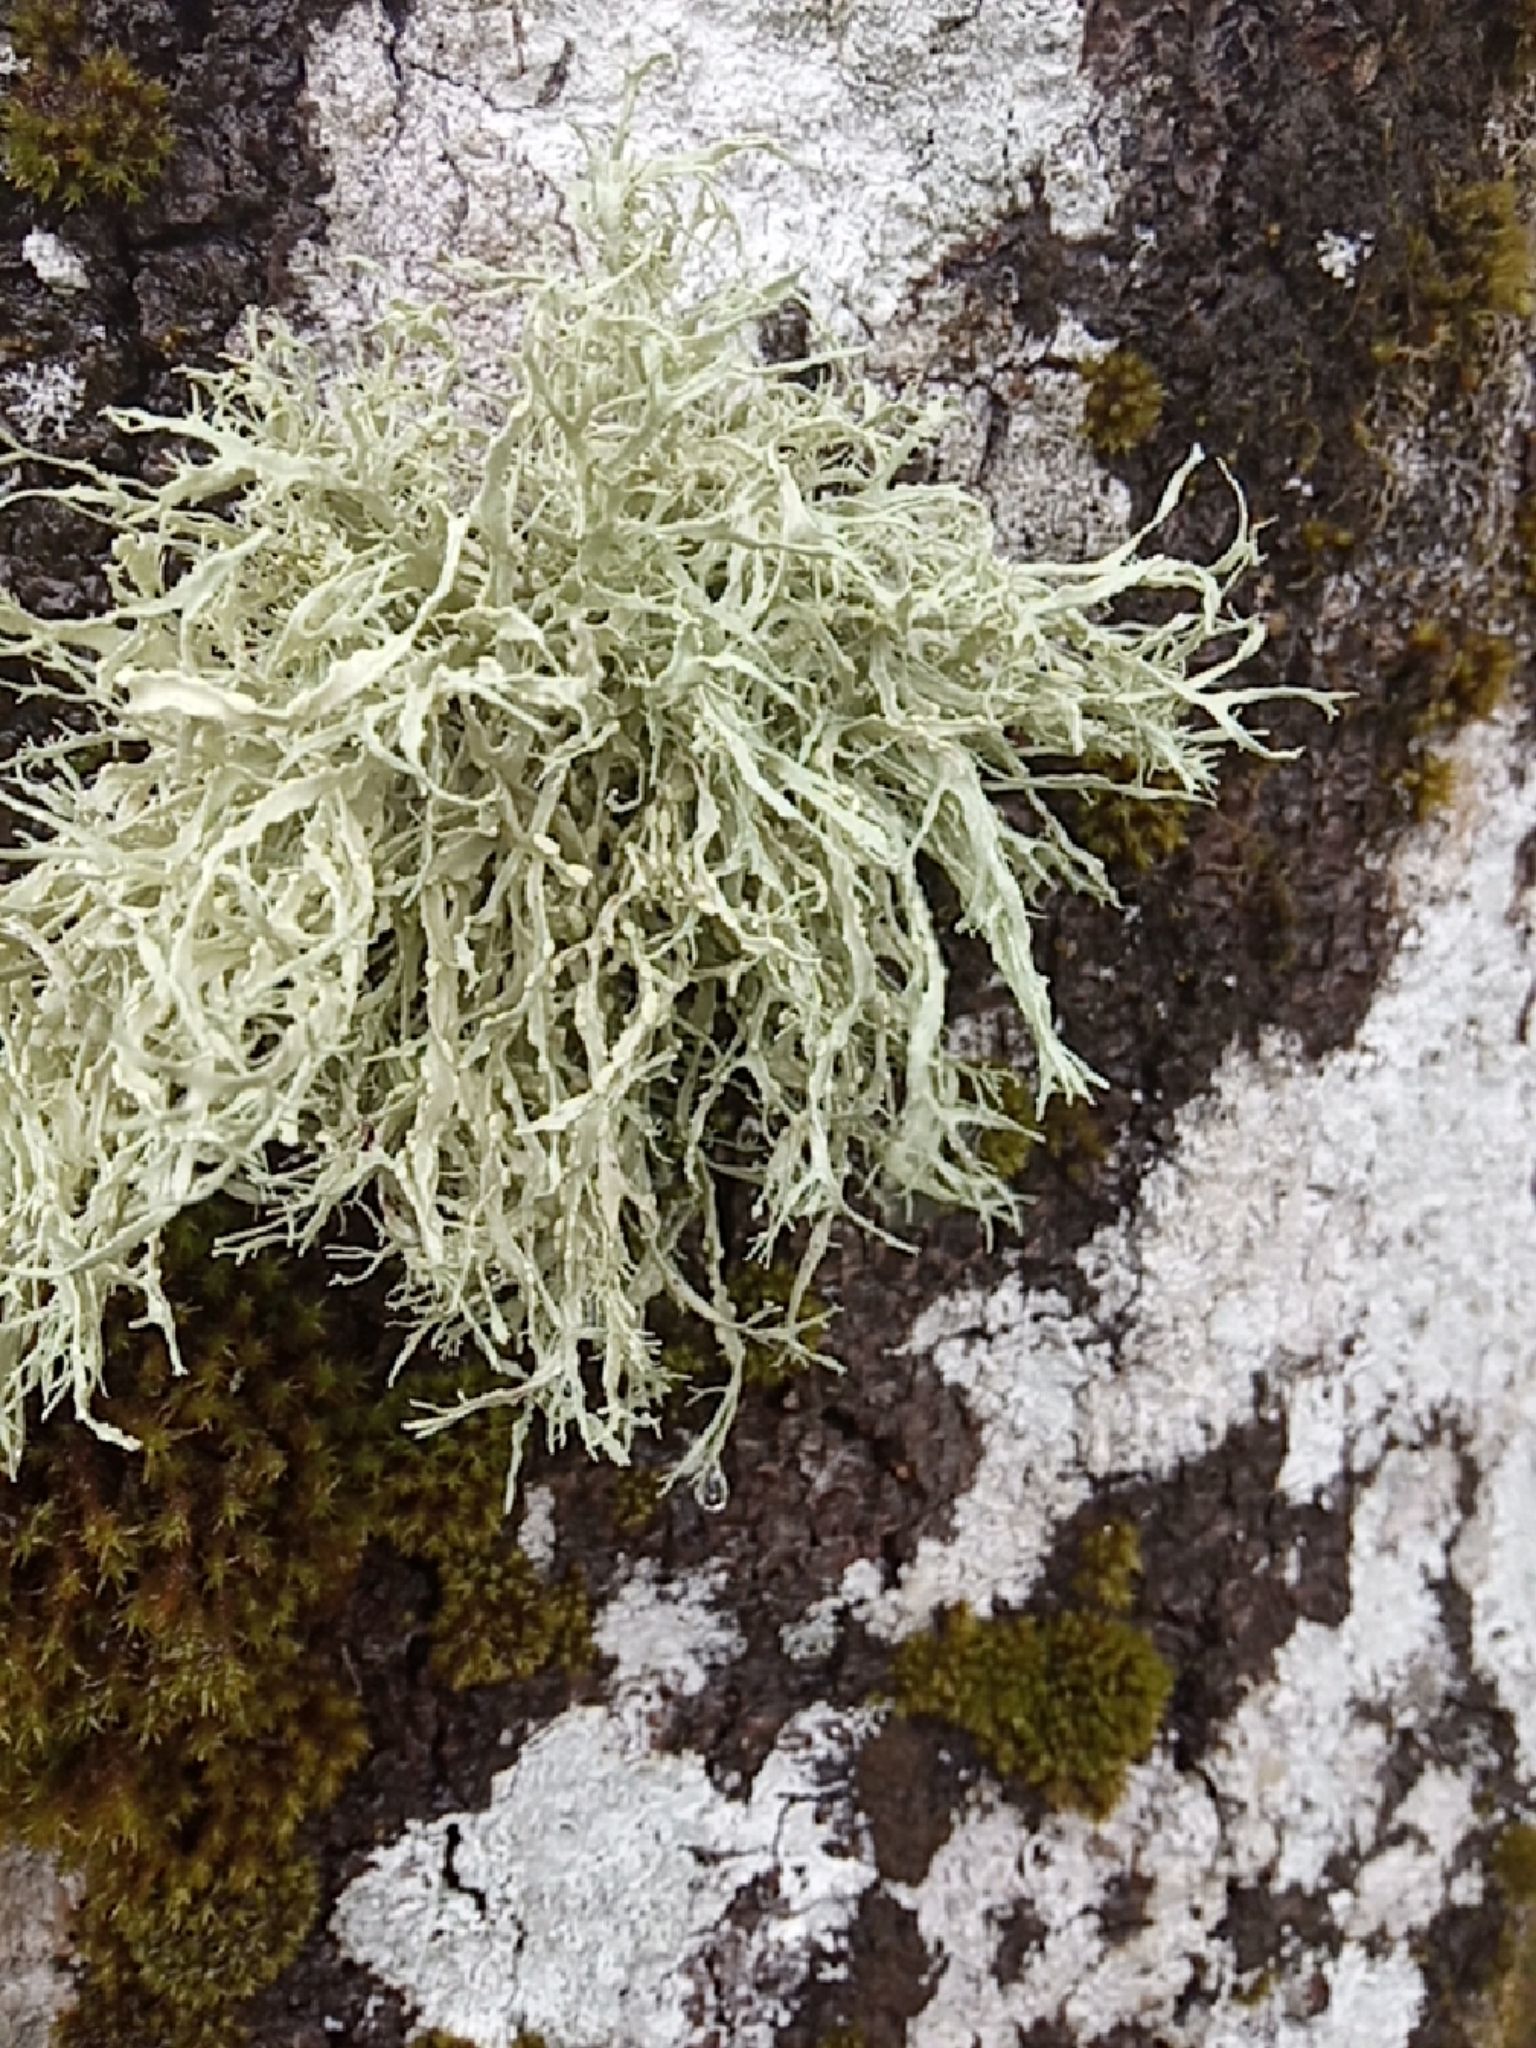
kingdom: Fungi
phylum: Ascomycota
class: Lecanoromycetes
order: Lecanorales
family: Ramalinaceae
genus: Ramalina
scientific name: Ramalina farinacea
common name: Farinose cartilage lichen
